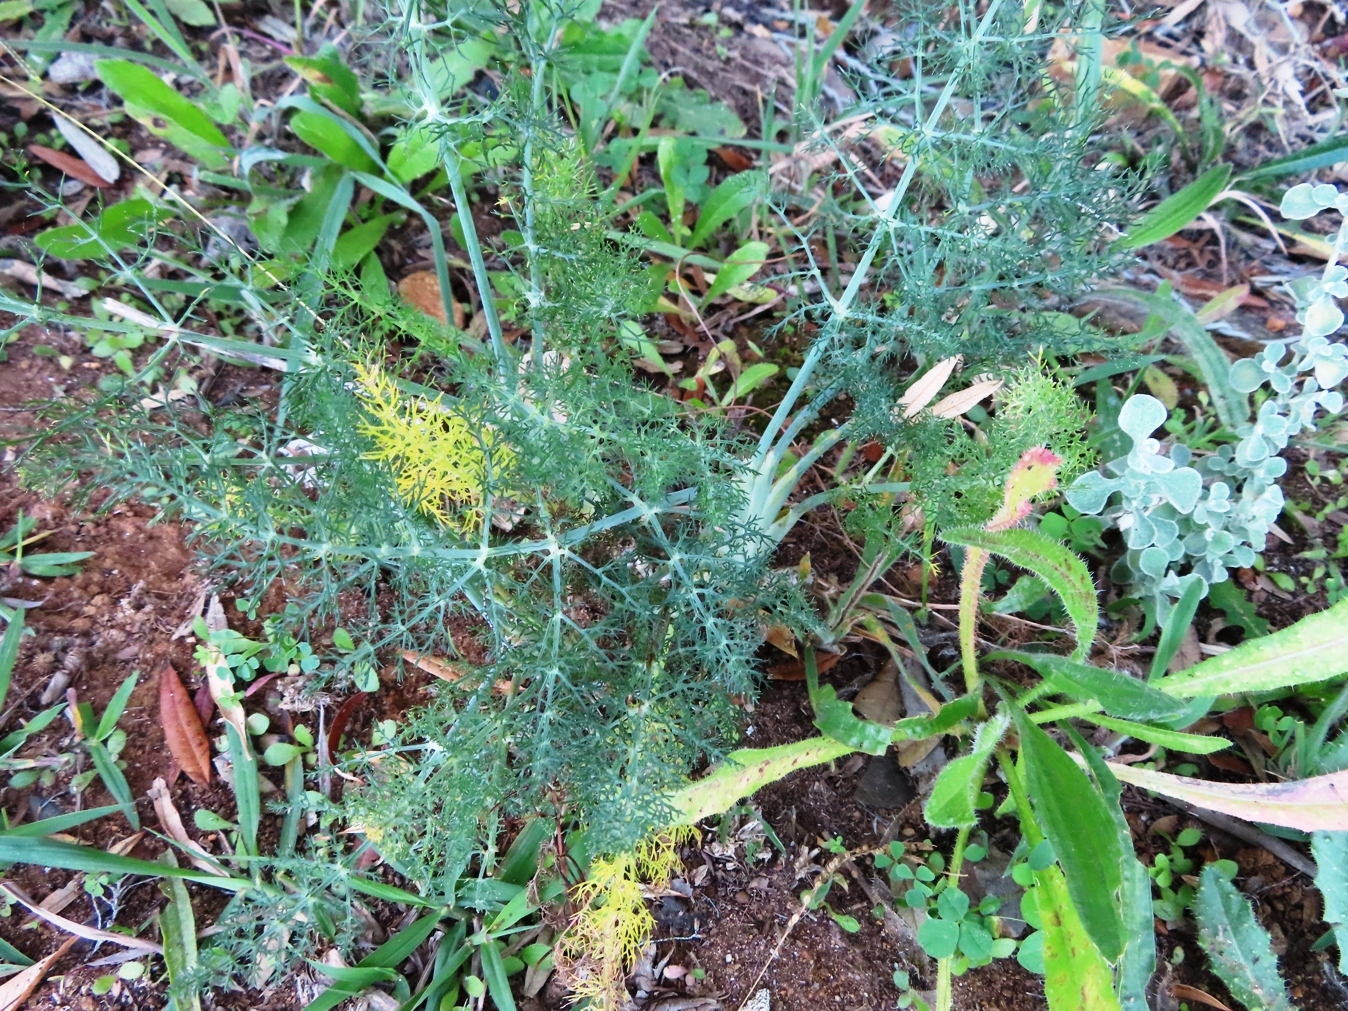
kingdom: Plantae
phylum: Tracheophyta
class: Magnoliopsida
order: Apiales
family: Apiaceae
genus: Foeniculum
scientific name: Foeniculum vulgare
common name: Fennel
